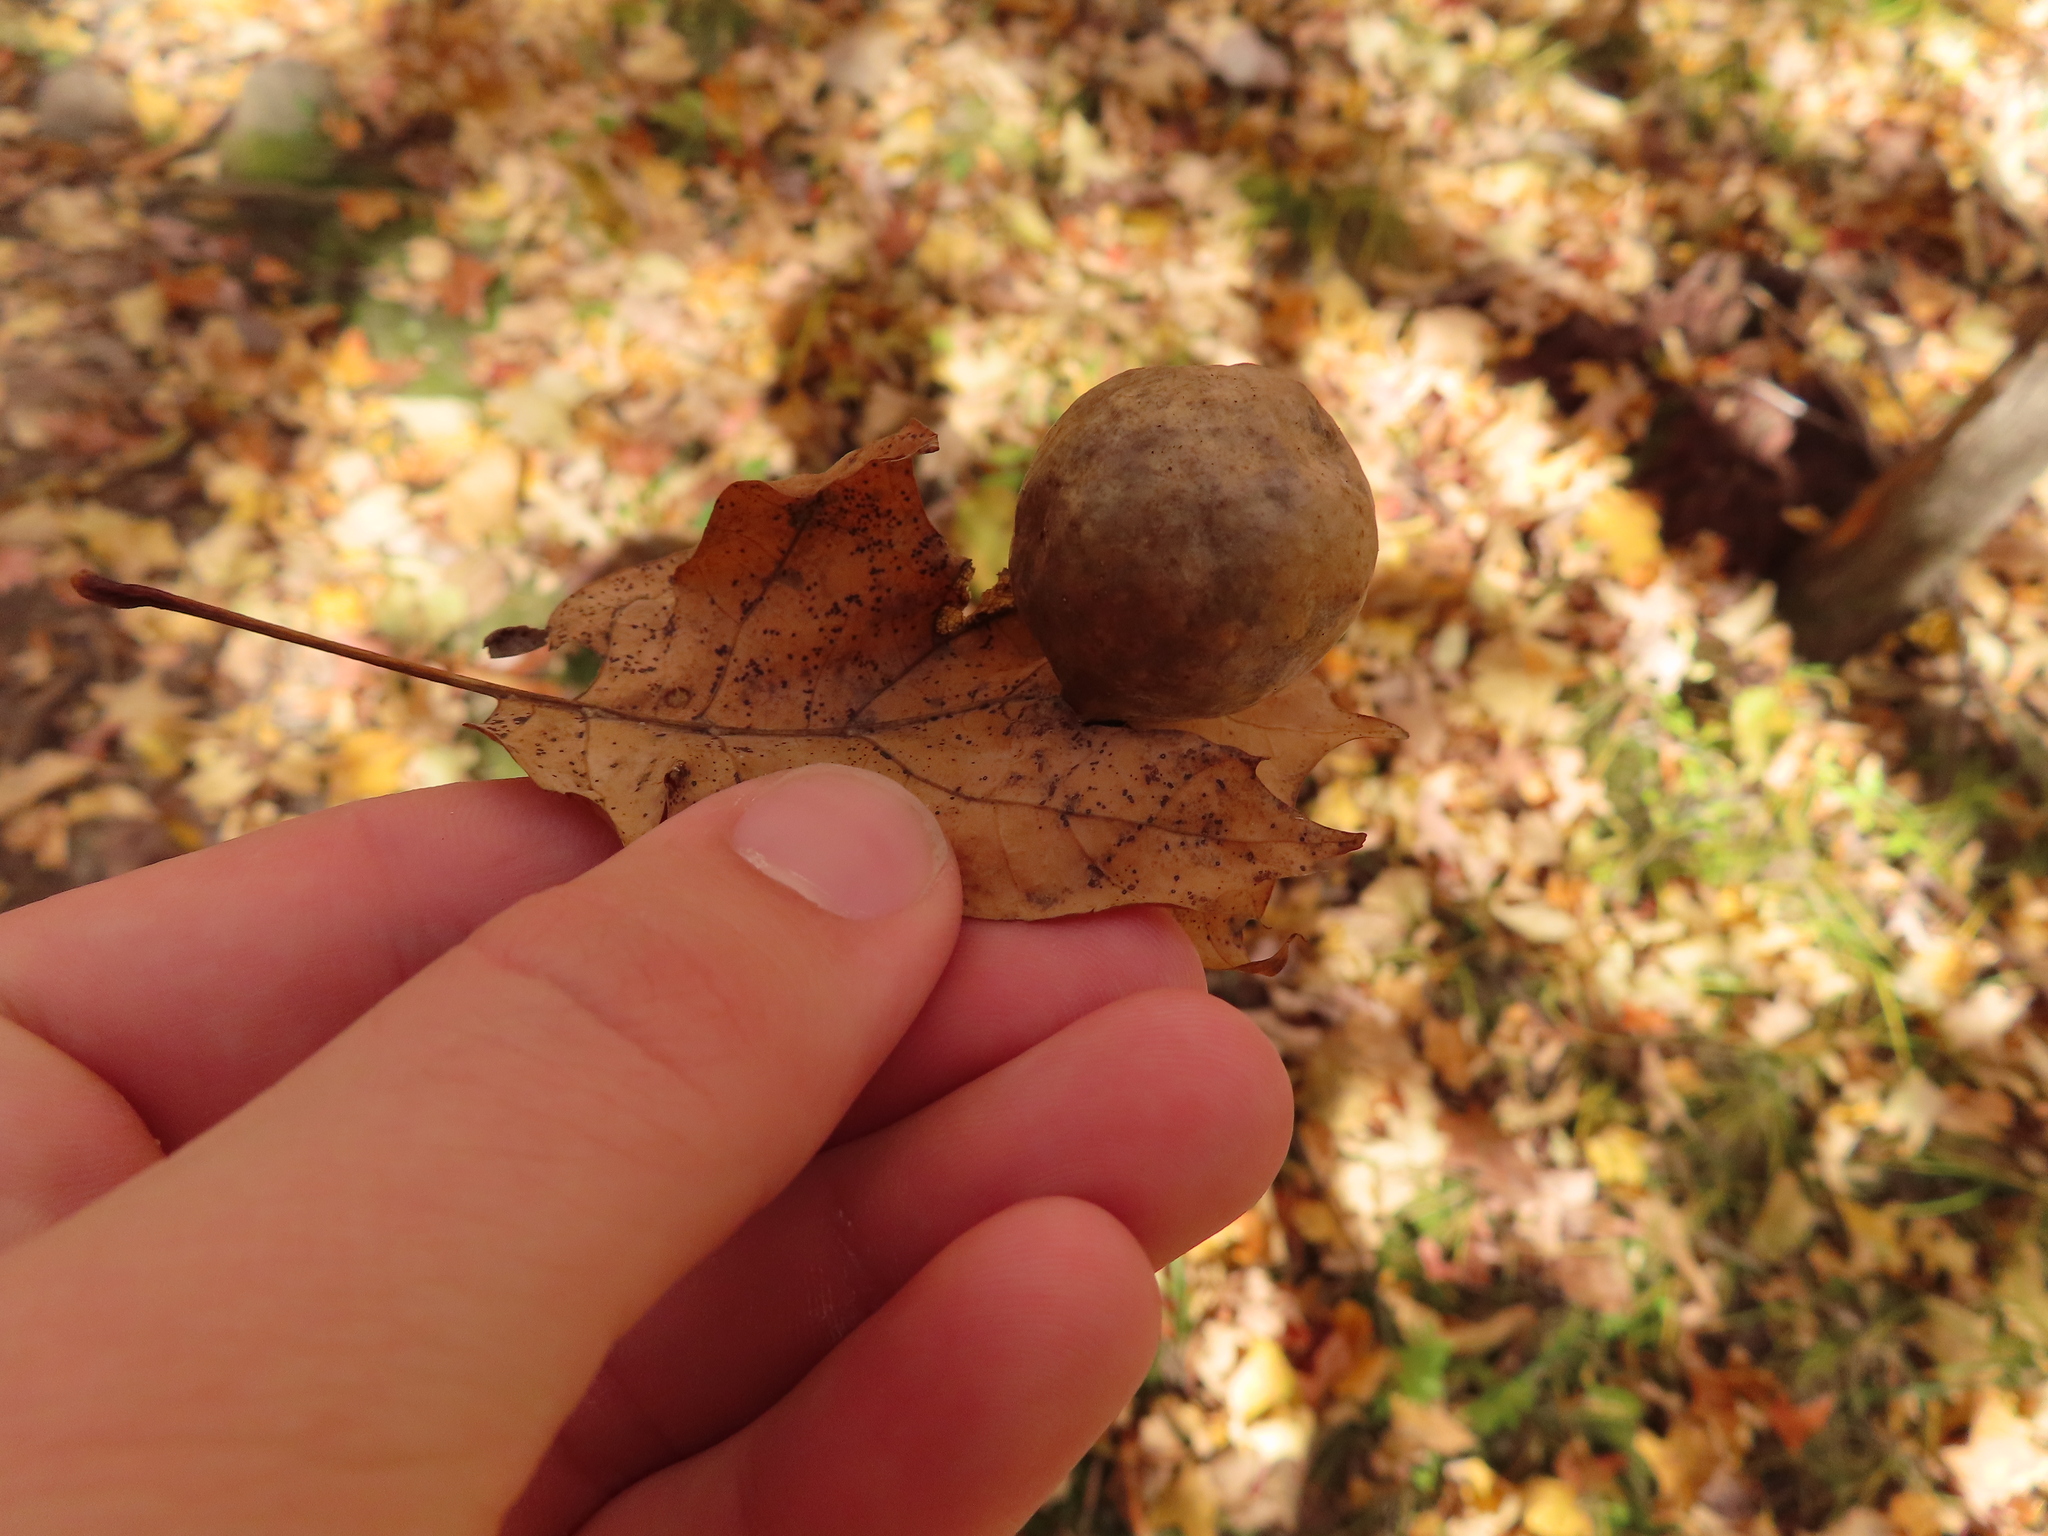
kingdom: Animalia
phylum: Arthropoda
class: Insecta
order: Hymenoptera
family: Cynipidae
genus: Amphibolips
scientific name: Amphibolips
